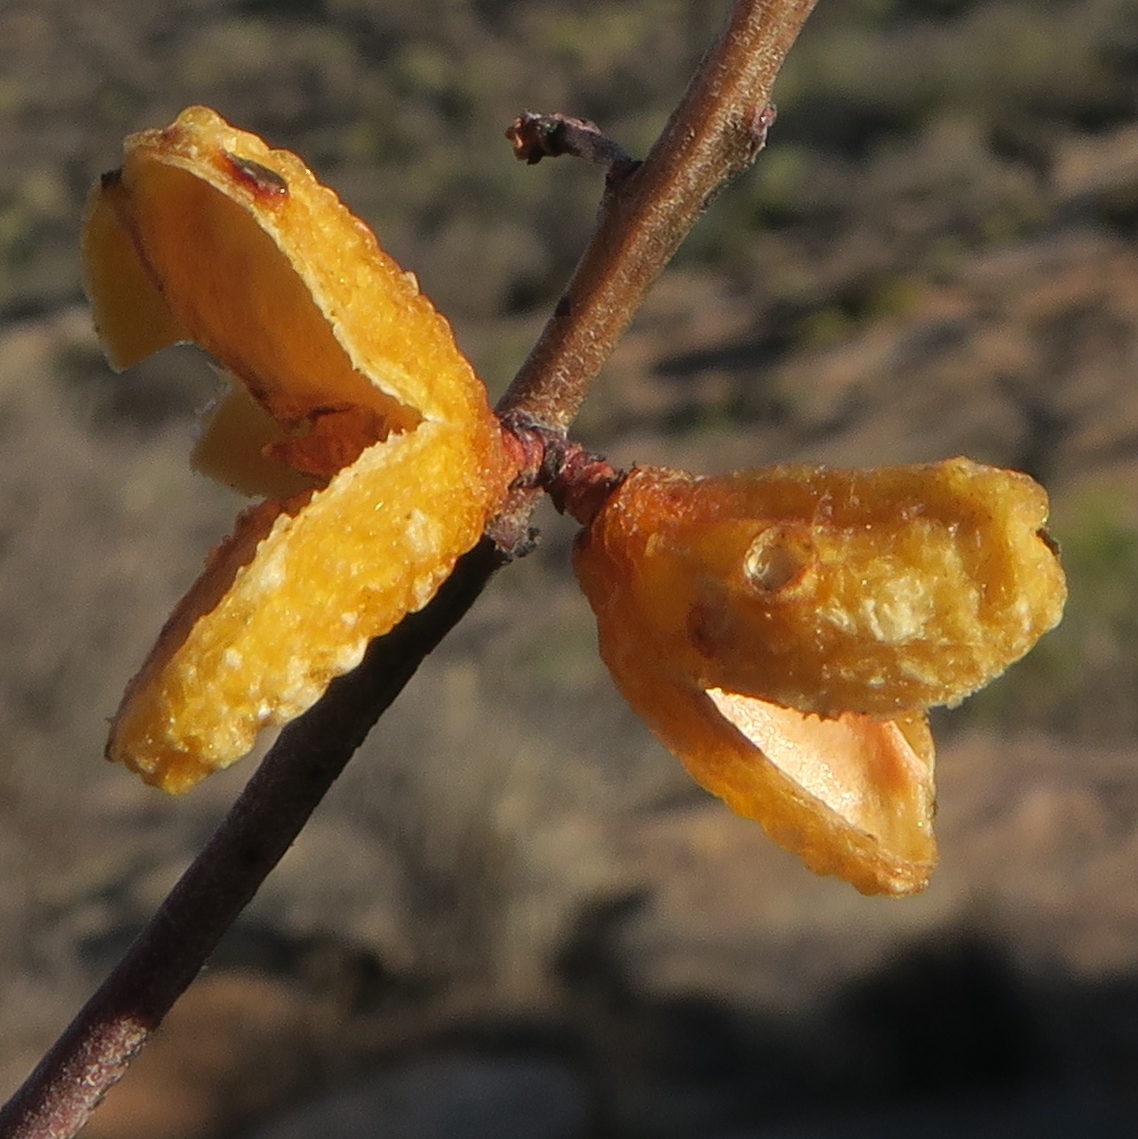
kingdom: Plantae
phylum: Tracheophyta
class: Magnoliopsida
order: Celastrales
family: Celastraceae
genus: Gymnosporia
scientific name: Gymnosporia laurina
